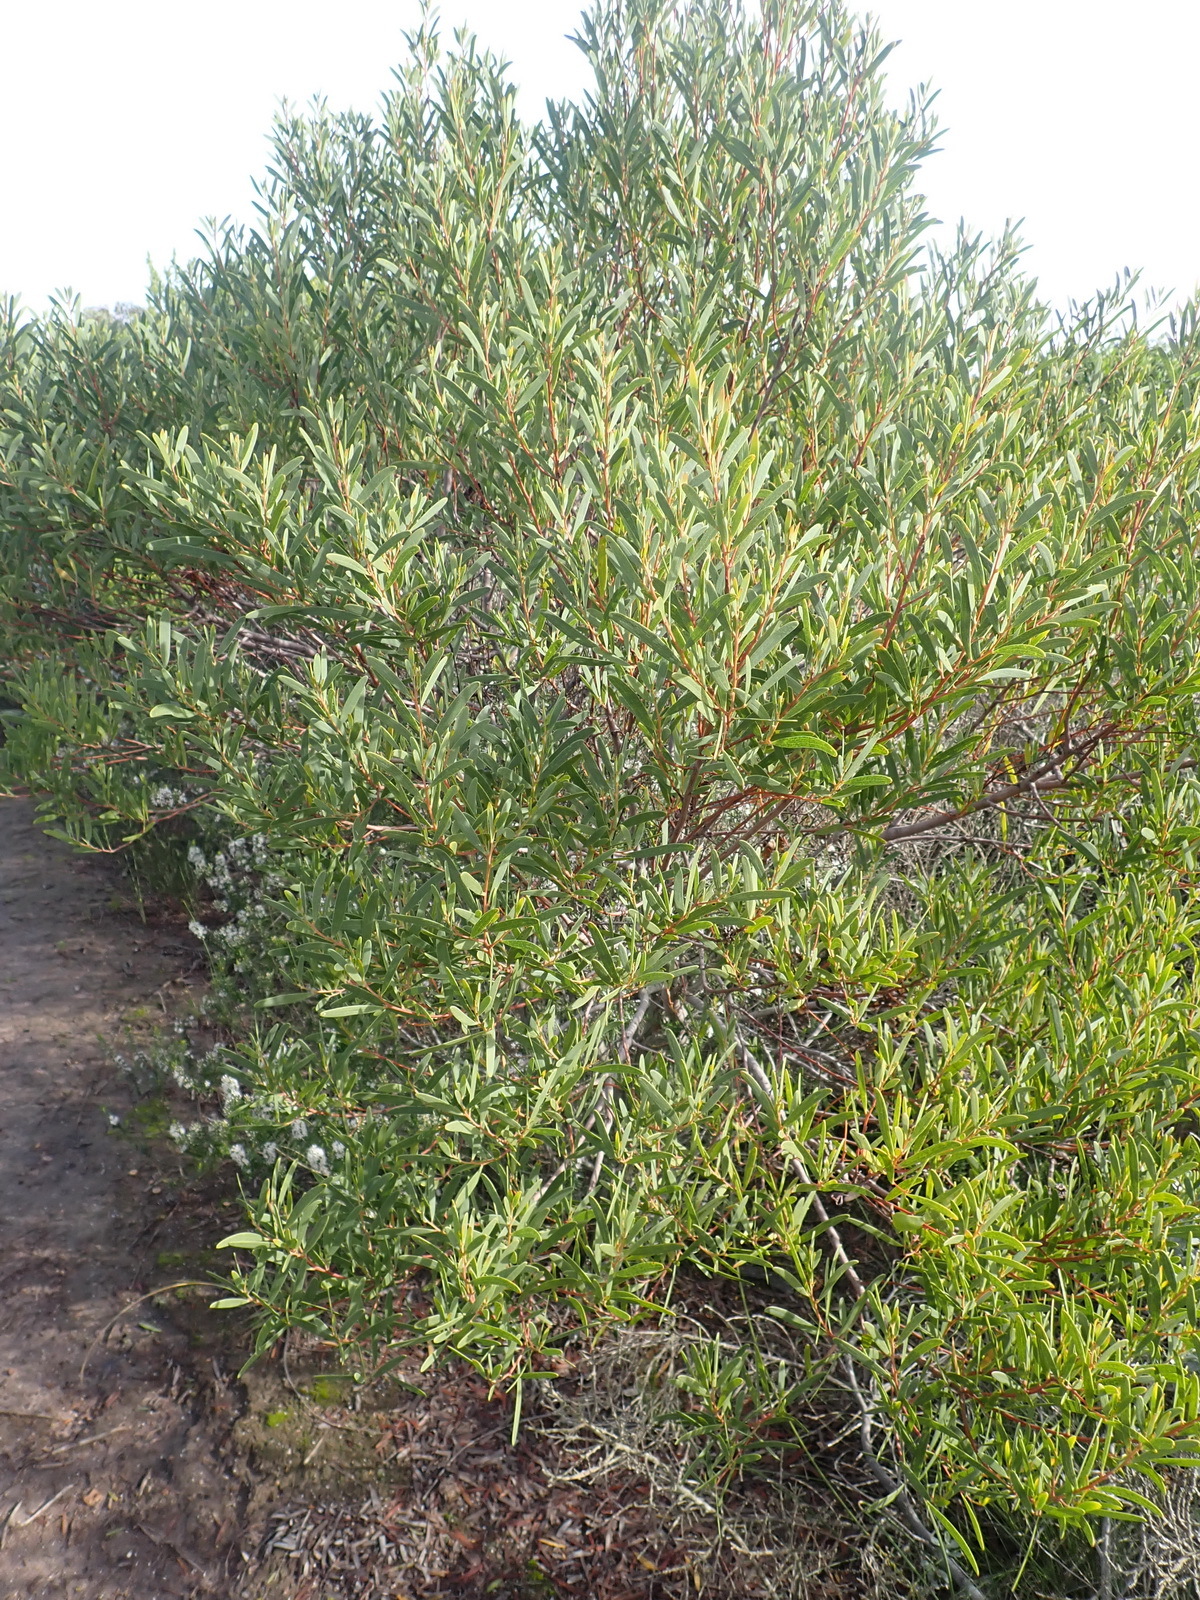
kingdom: Plantae
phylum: Tracheophyta
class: Magnoliopsida
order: Fabales
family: Fabaceae
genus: Acacia
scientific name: Acacia cyclops
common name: Coastal wattle
